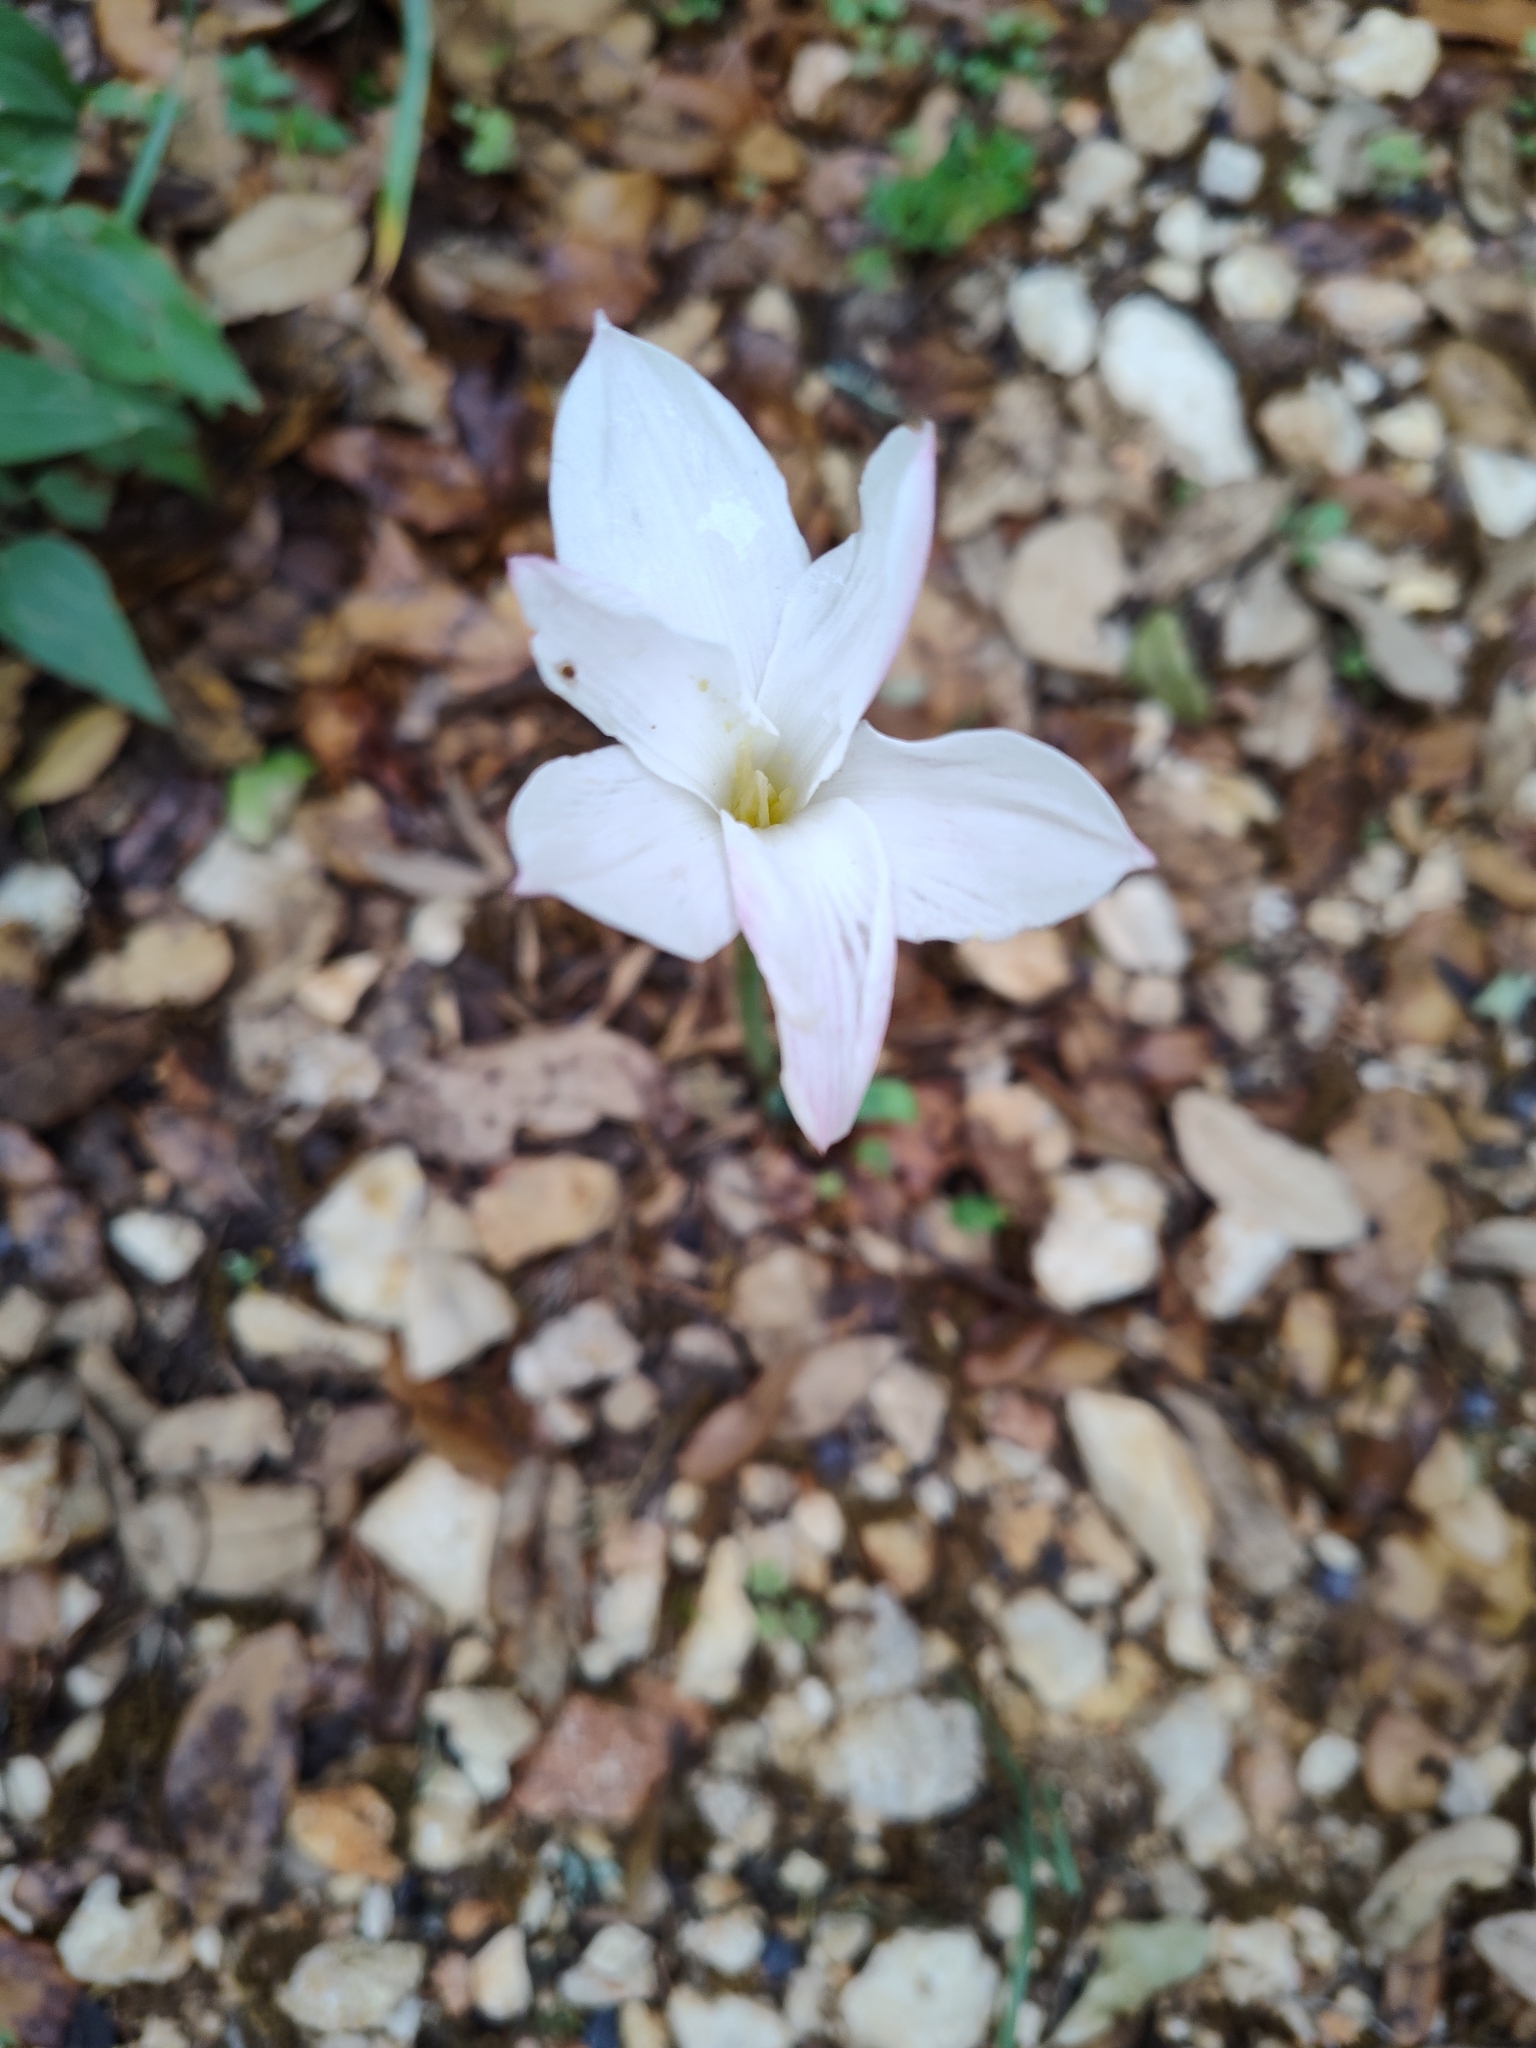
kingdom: Plantae
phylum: Tracheophyta
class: Liliopsida
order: Asparagales
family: Amaryllidaceae
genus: Zephyranthes
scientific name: Zephyranthes drummondii
